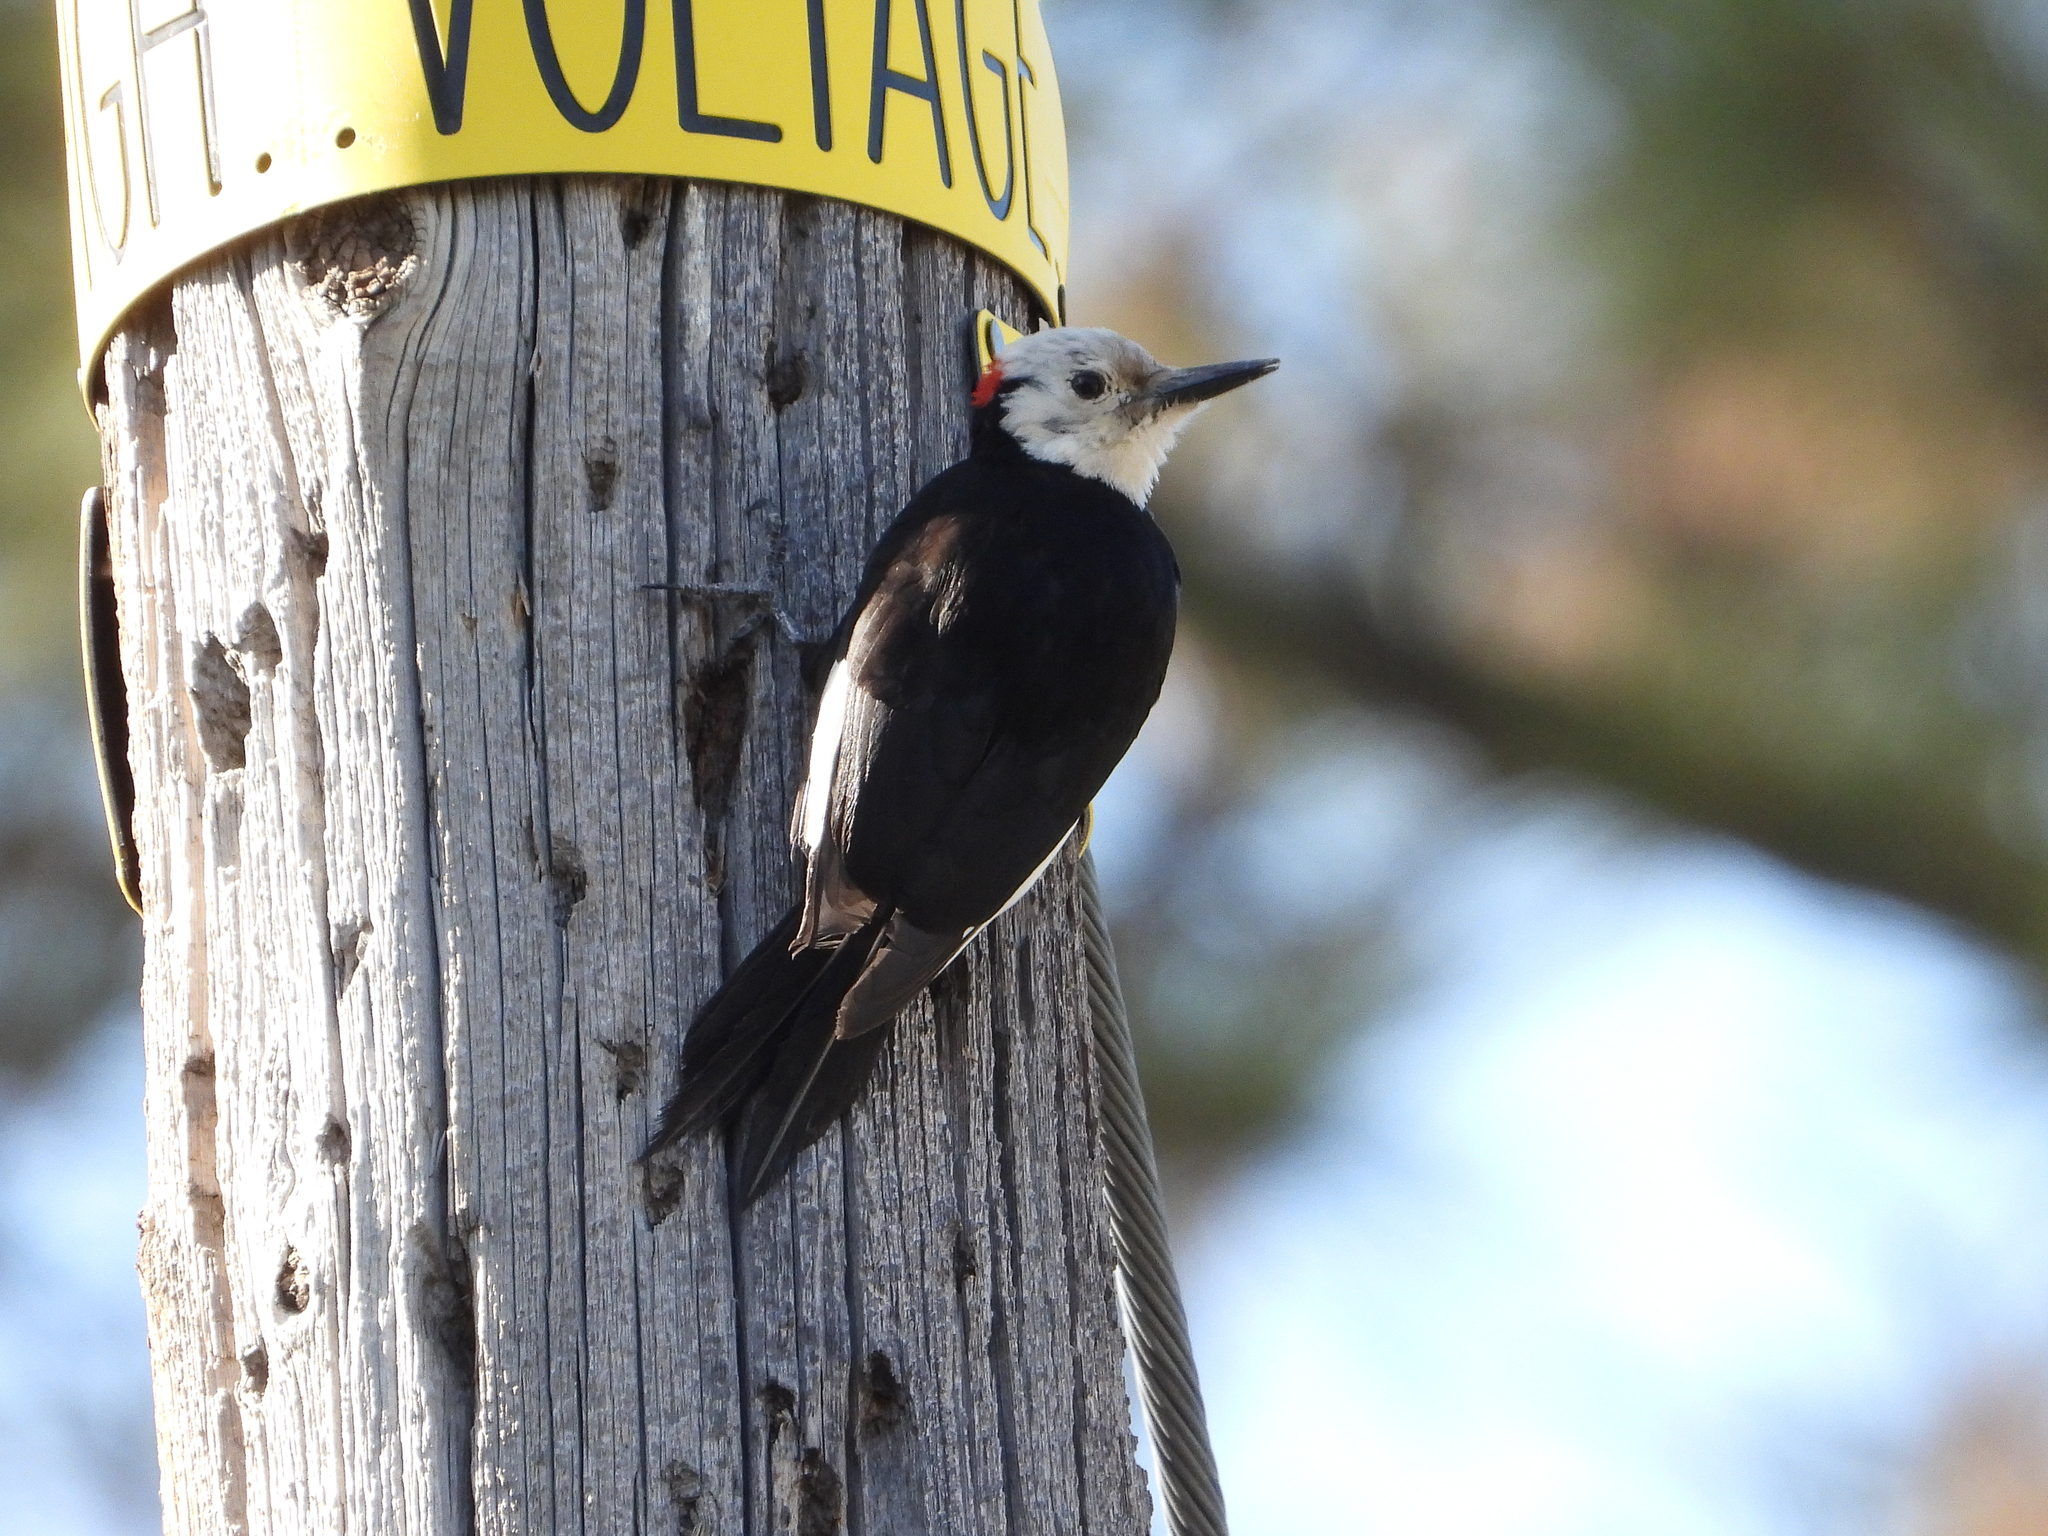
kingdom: Animalia
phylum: Chordata
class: Aves
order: Piciformes
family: Picidae
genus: Leuconotopicus
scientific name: Leuconotopicus albolarvatus
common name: White-headed woodpecker
